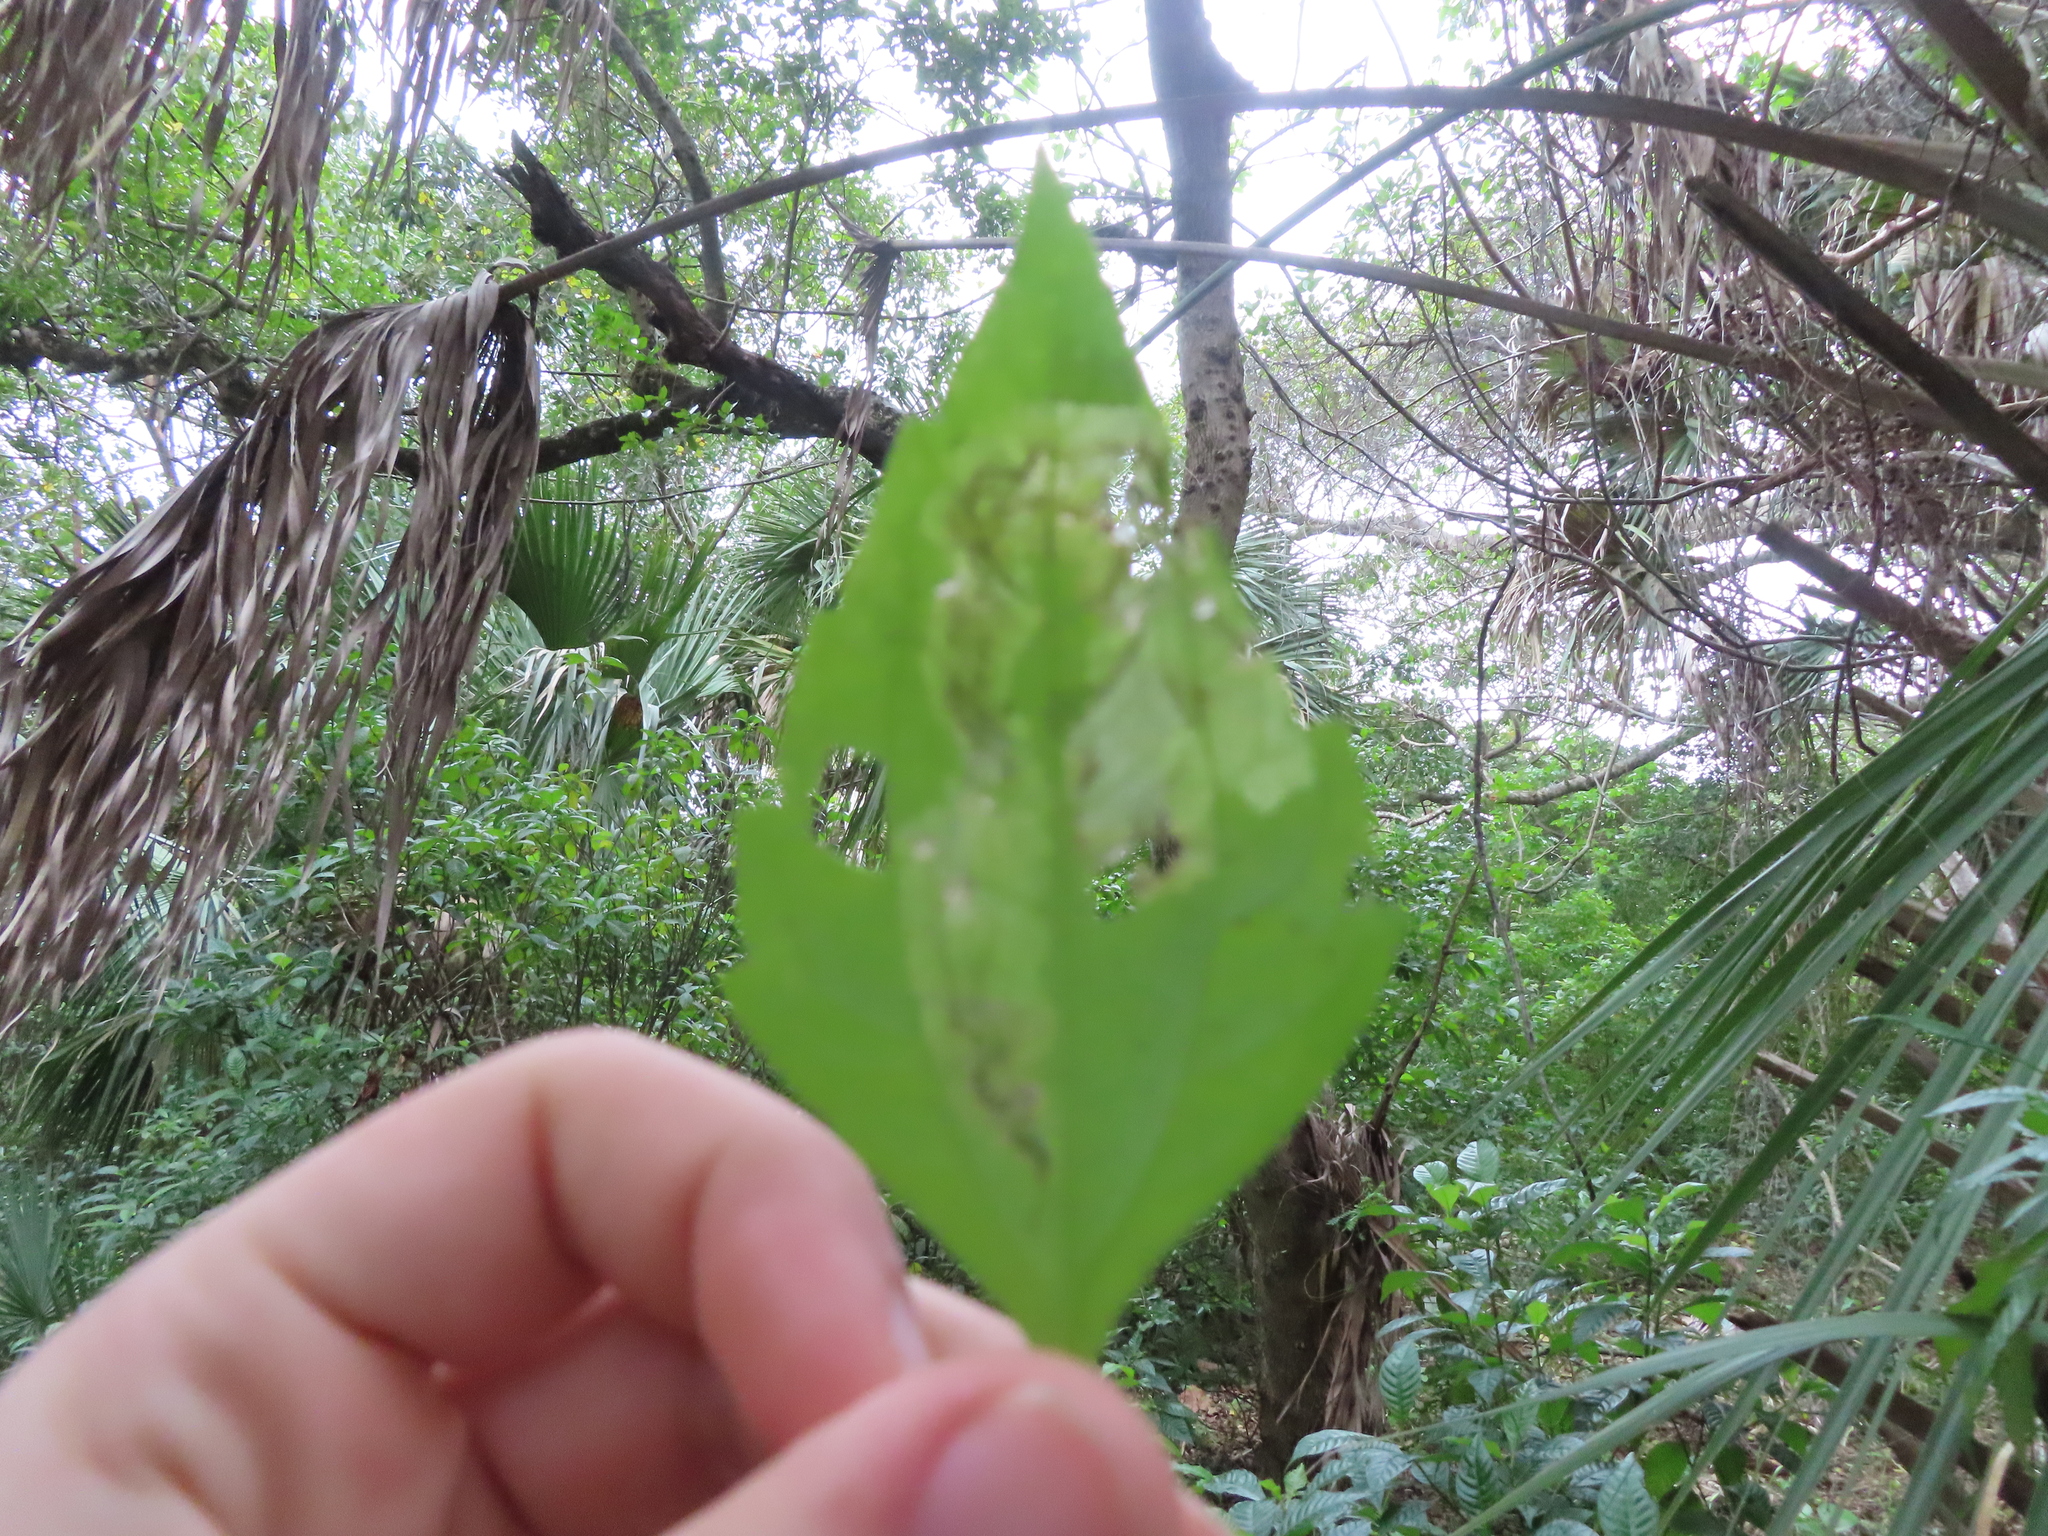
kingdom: Animalia
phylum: Arthropoda
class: Insecta
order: Diptera
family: Agromyzidae
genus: Calycomyza
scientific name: Calycomyza eupatorivora
